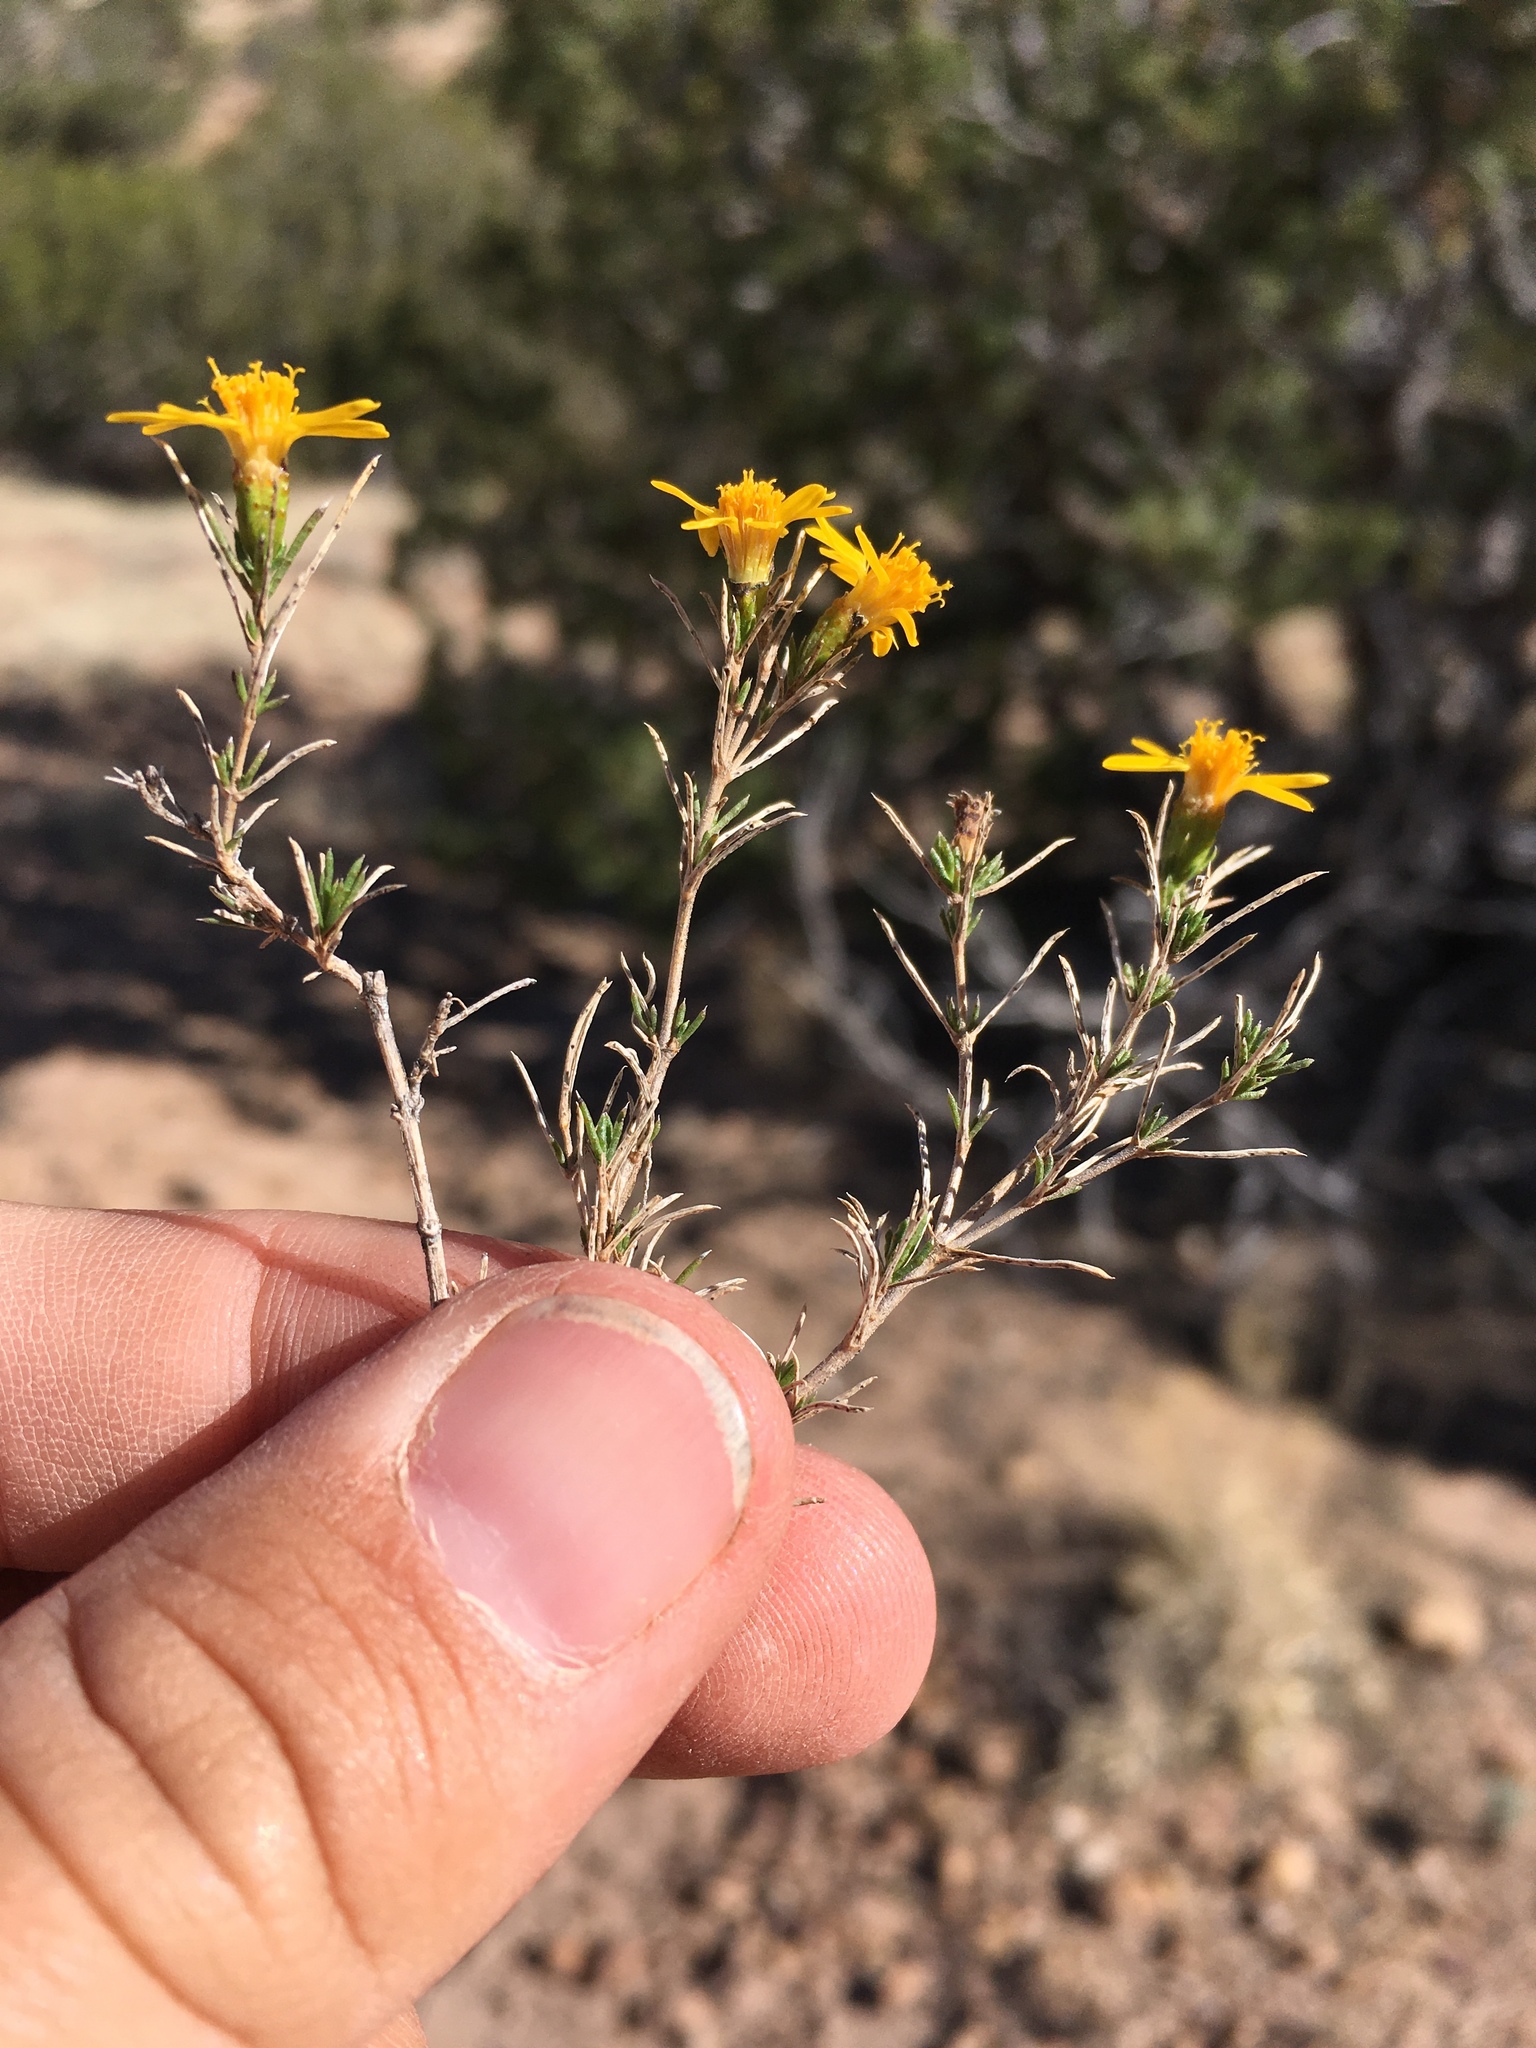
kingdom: Plantae
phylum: Tracheophyta
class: Magnoliopsida
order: Asterales
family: Asteraceae
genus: Thymophylla
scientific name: Thymophylla acerosa
